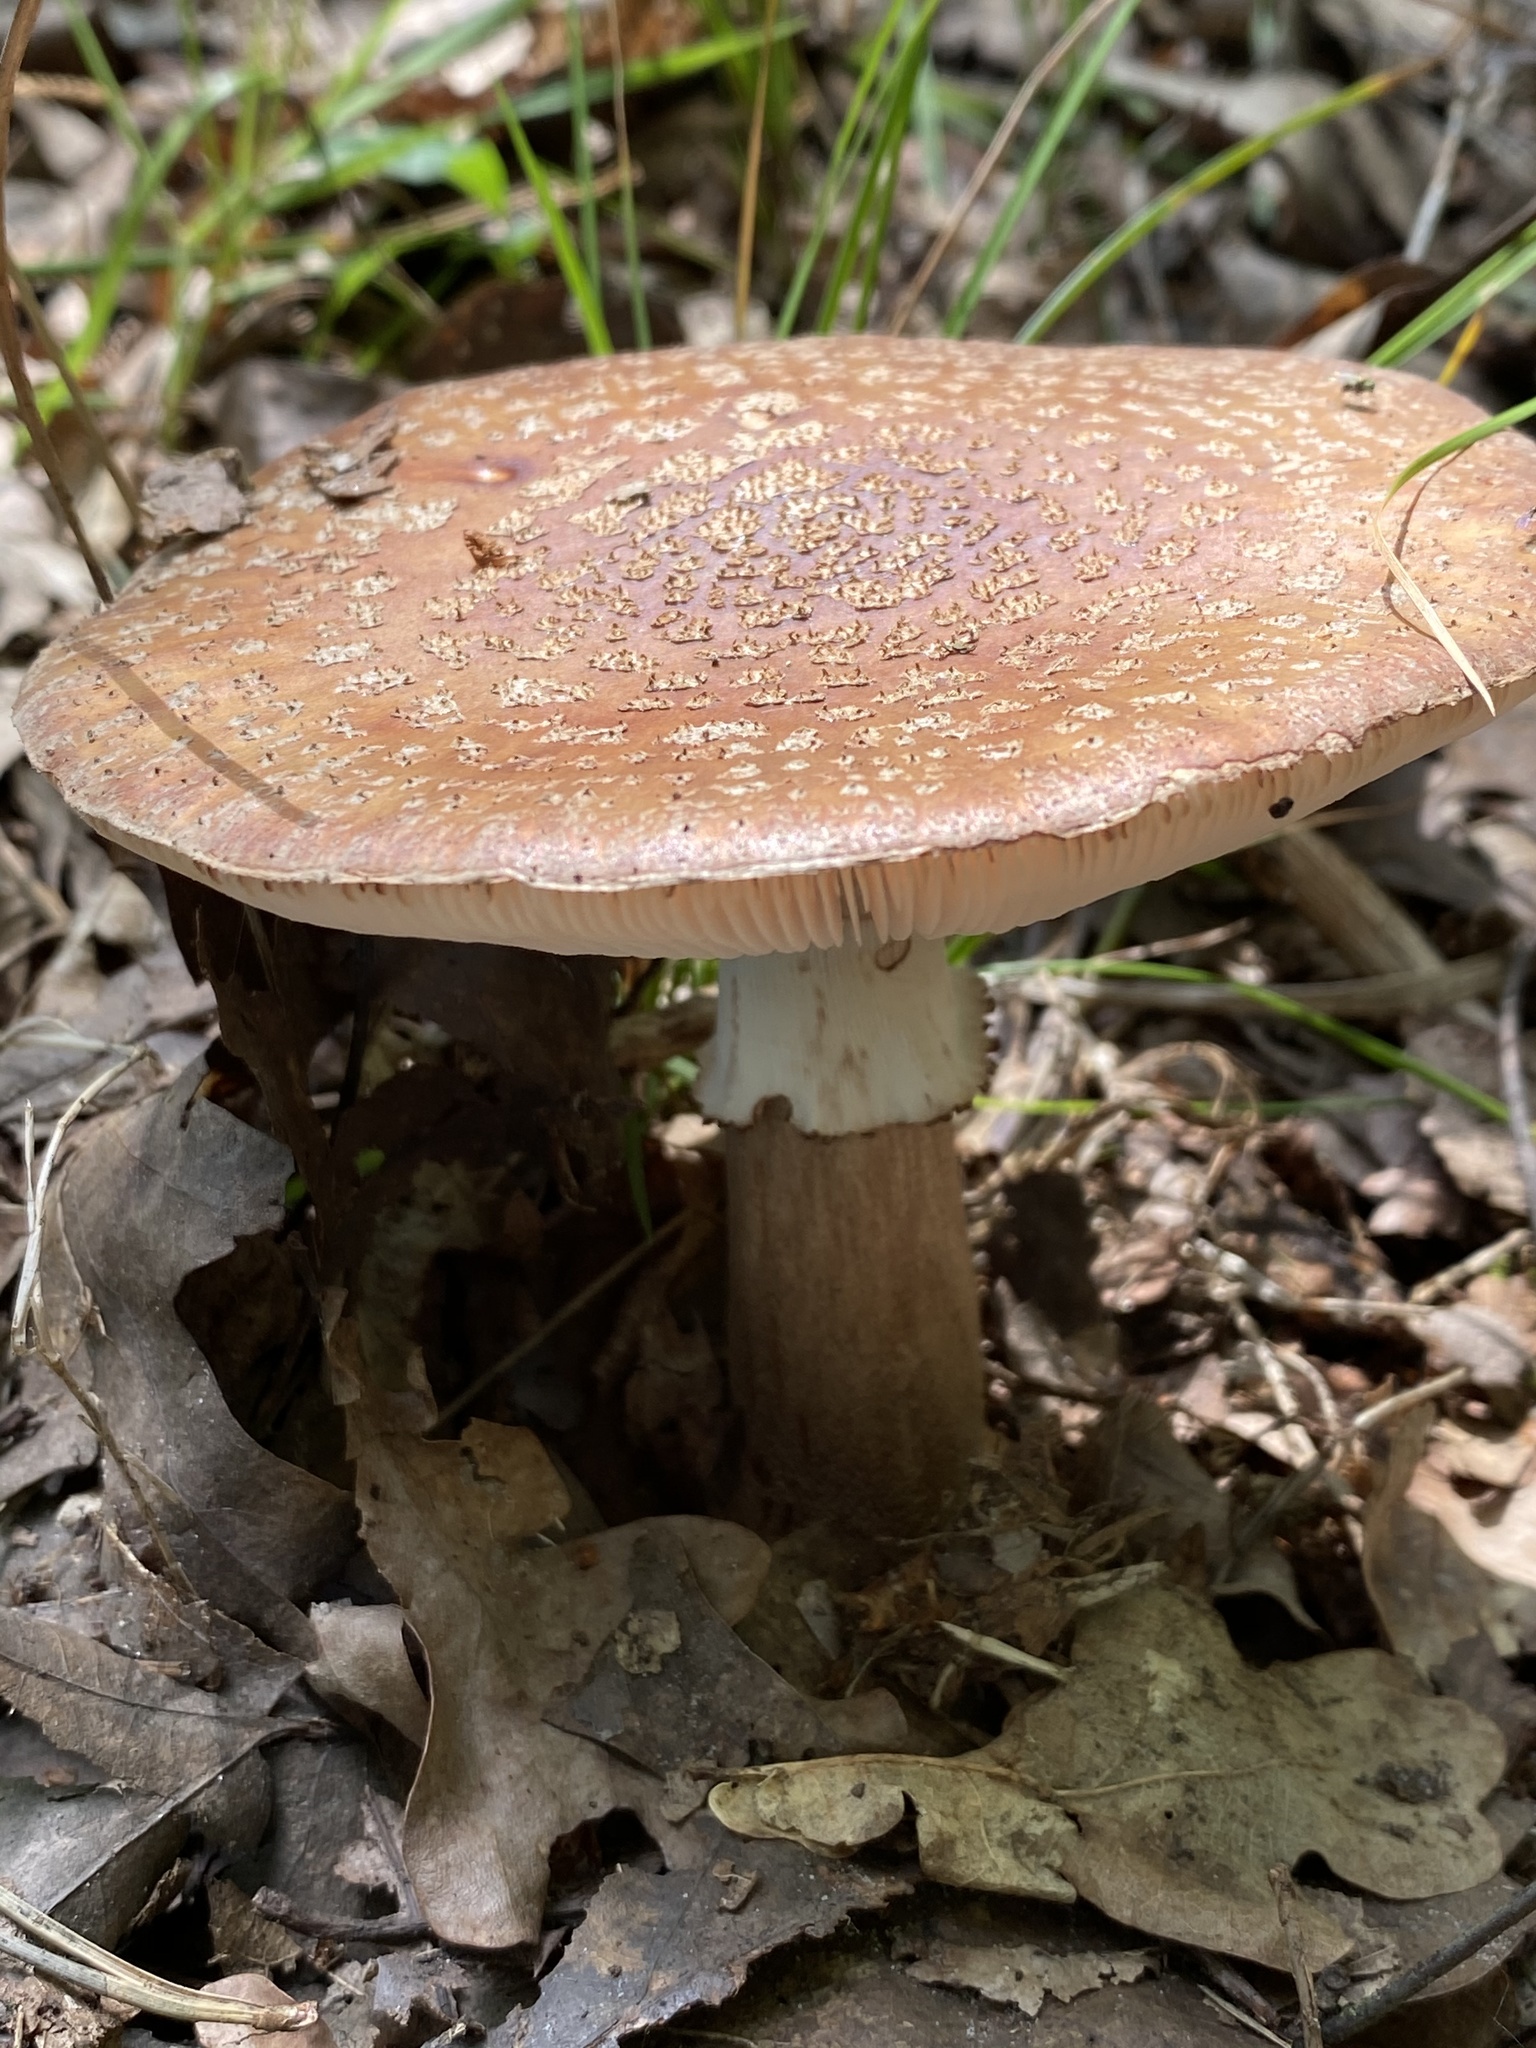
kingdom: Fungi
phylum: Basidiomycota
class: Agaricomycetes
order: Agaricales
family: Amanitaceae
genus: Amanita
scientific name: Amanita rubescens
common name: Blusher
